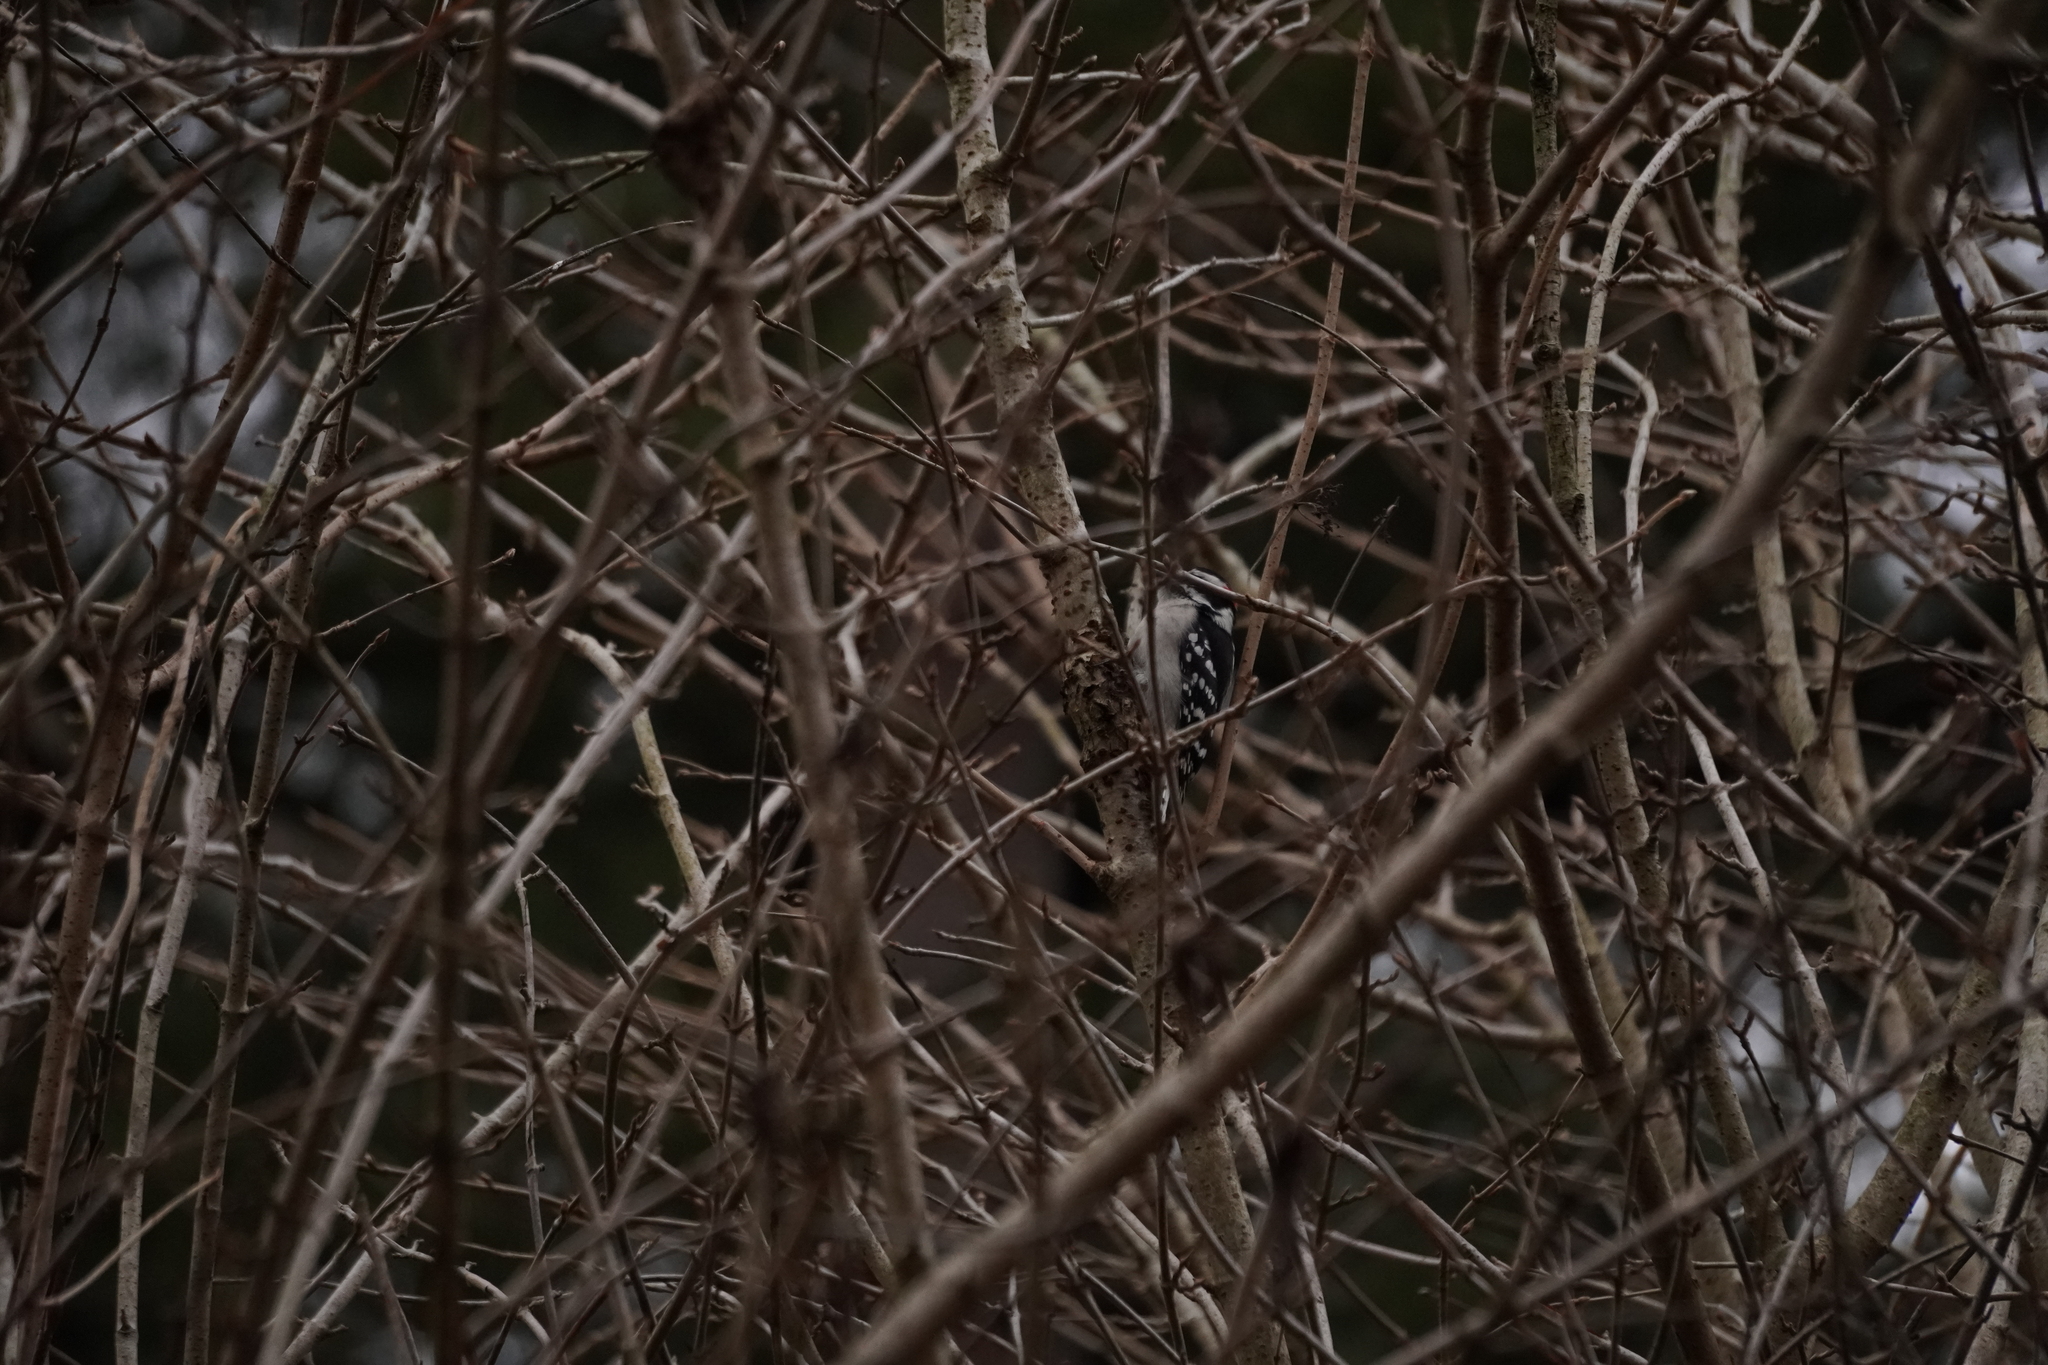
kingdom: Animalia
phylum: Chordata
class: Aves
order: Piciformes
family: Picidae
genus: Dryobates
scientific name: Dryobates pubescens
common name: Downy woodpecker
